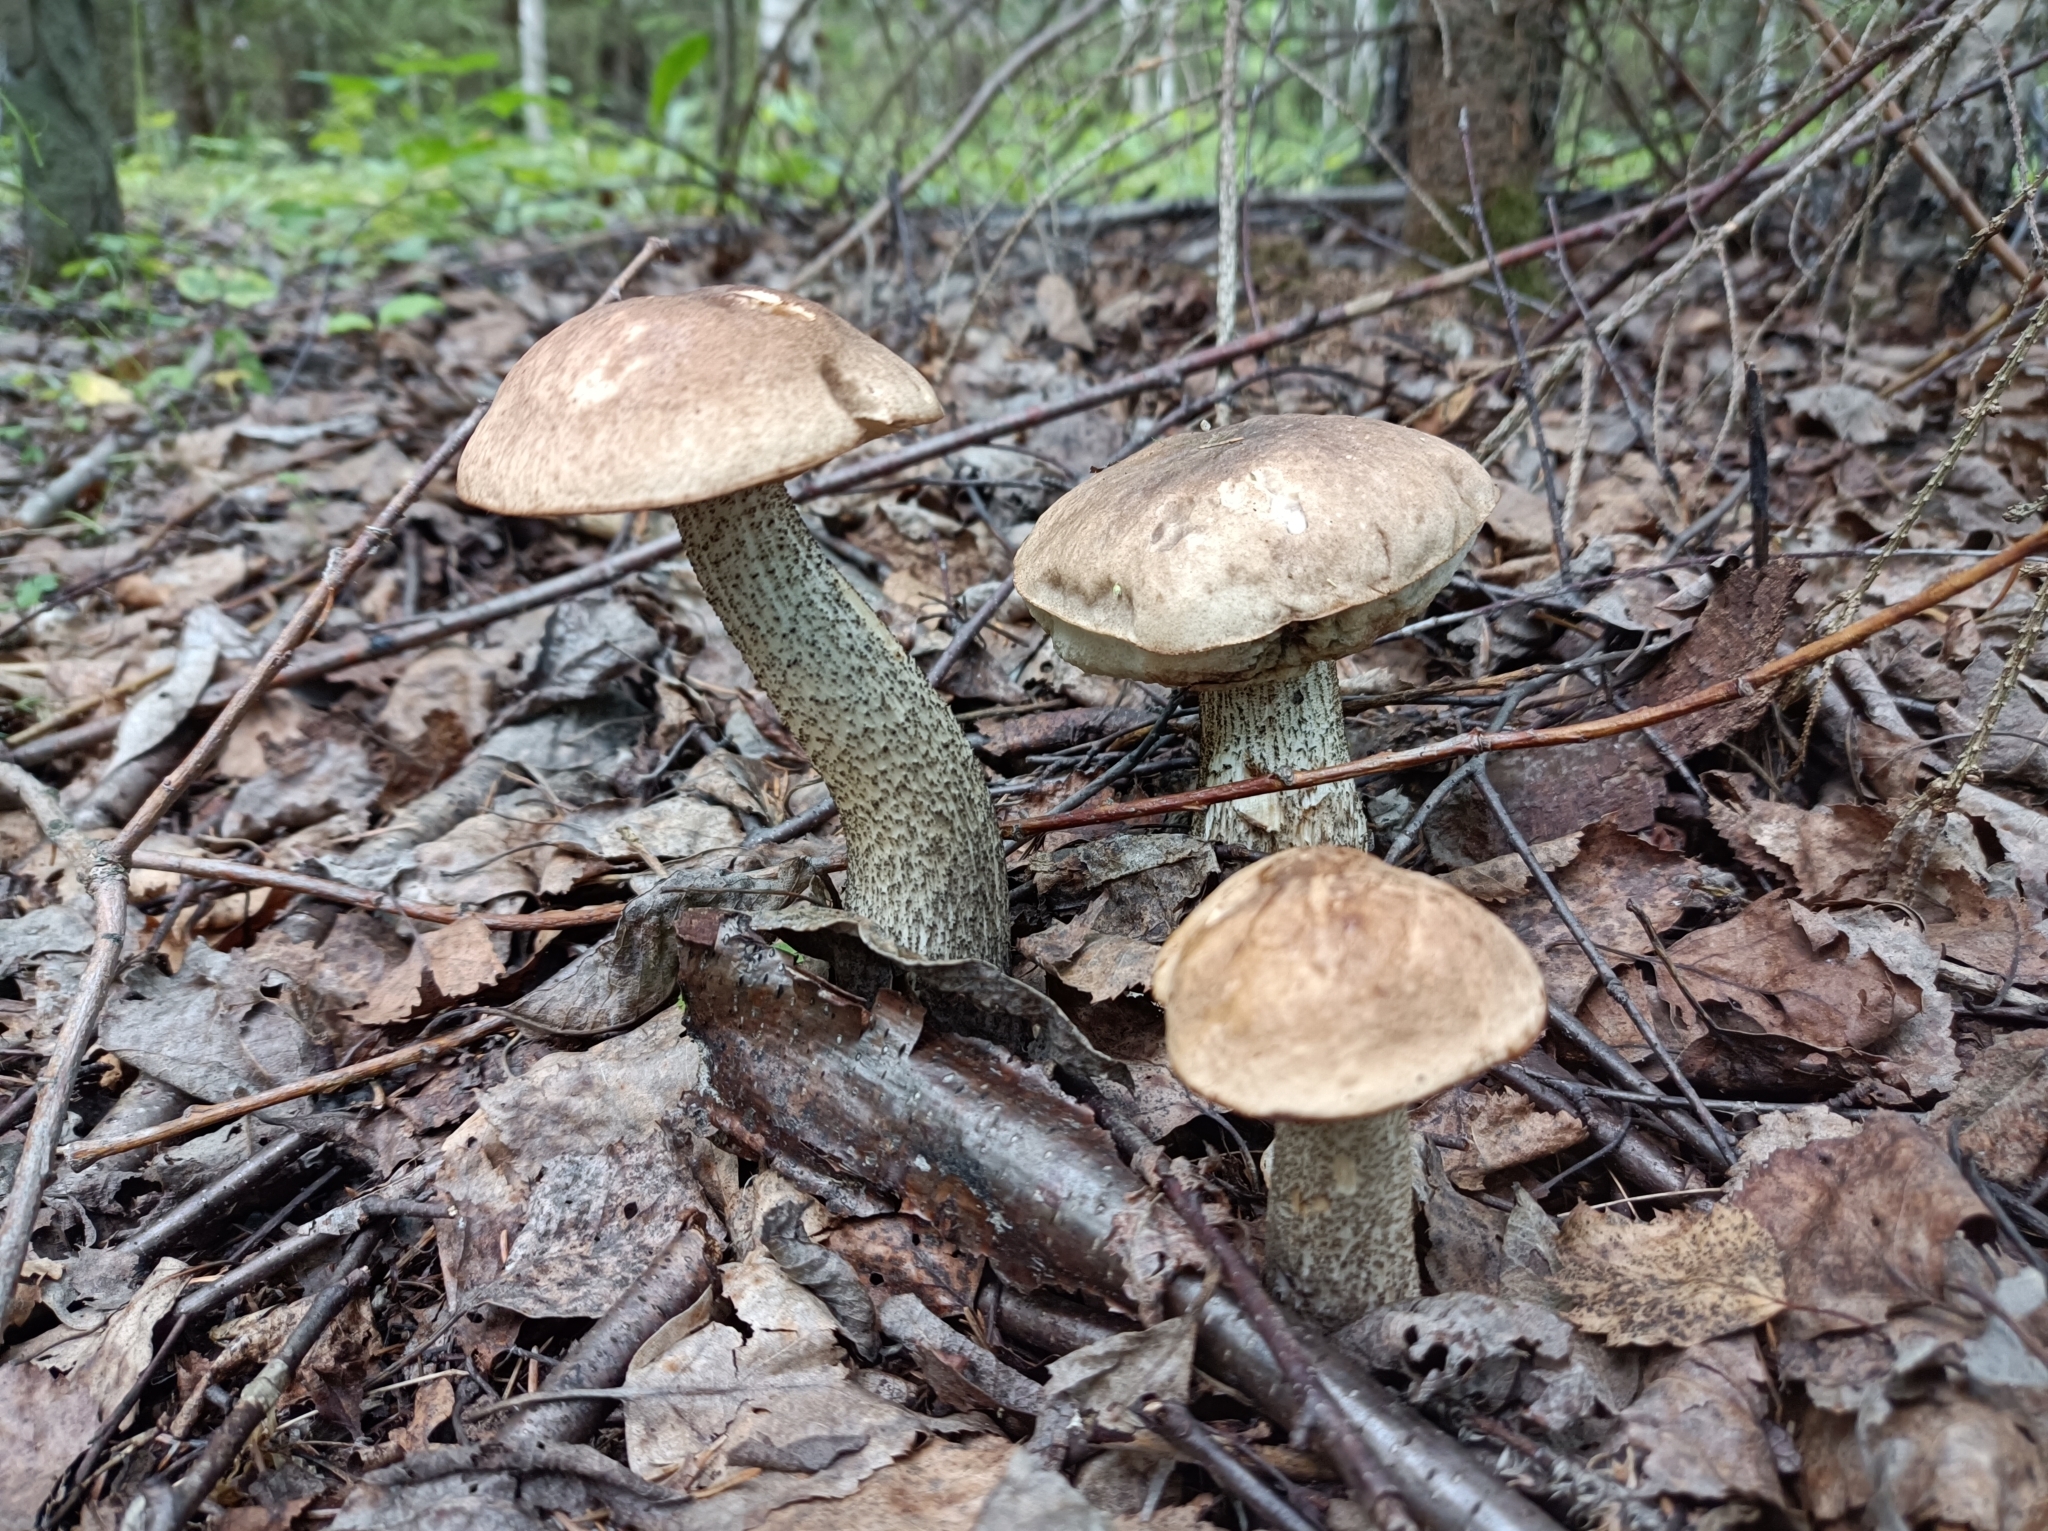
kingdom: Fungi
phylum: Basidiomycota
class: Agaricomycetes
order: Boletales
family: Boletaceae
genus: Leccinum
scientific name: Leccinum scabrum
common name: Blushing bolete
